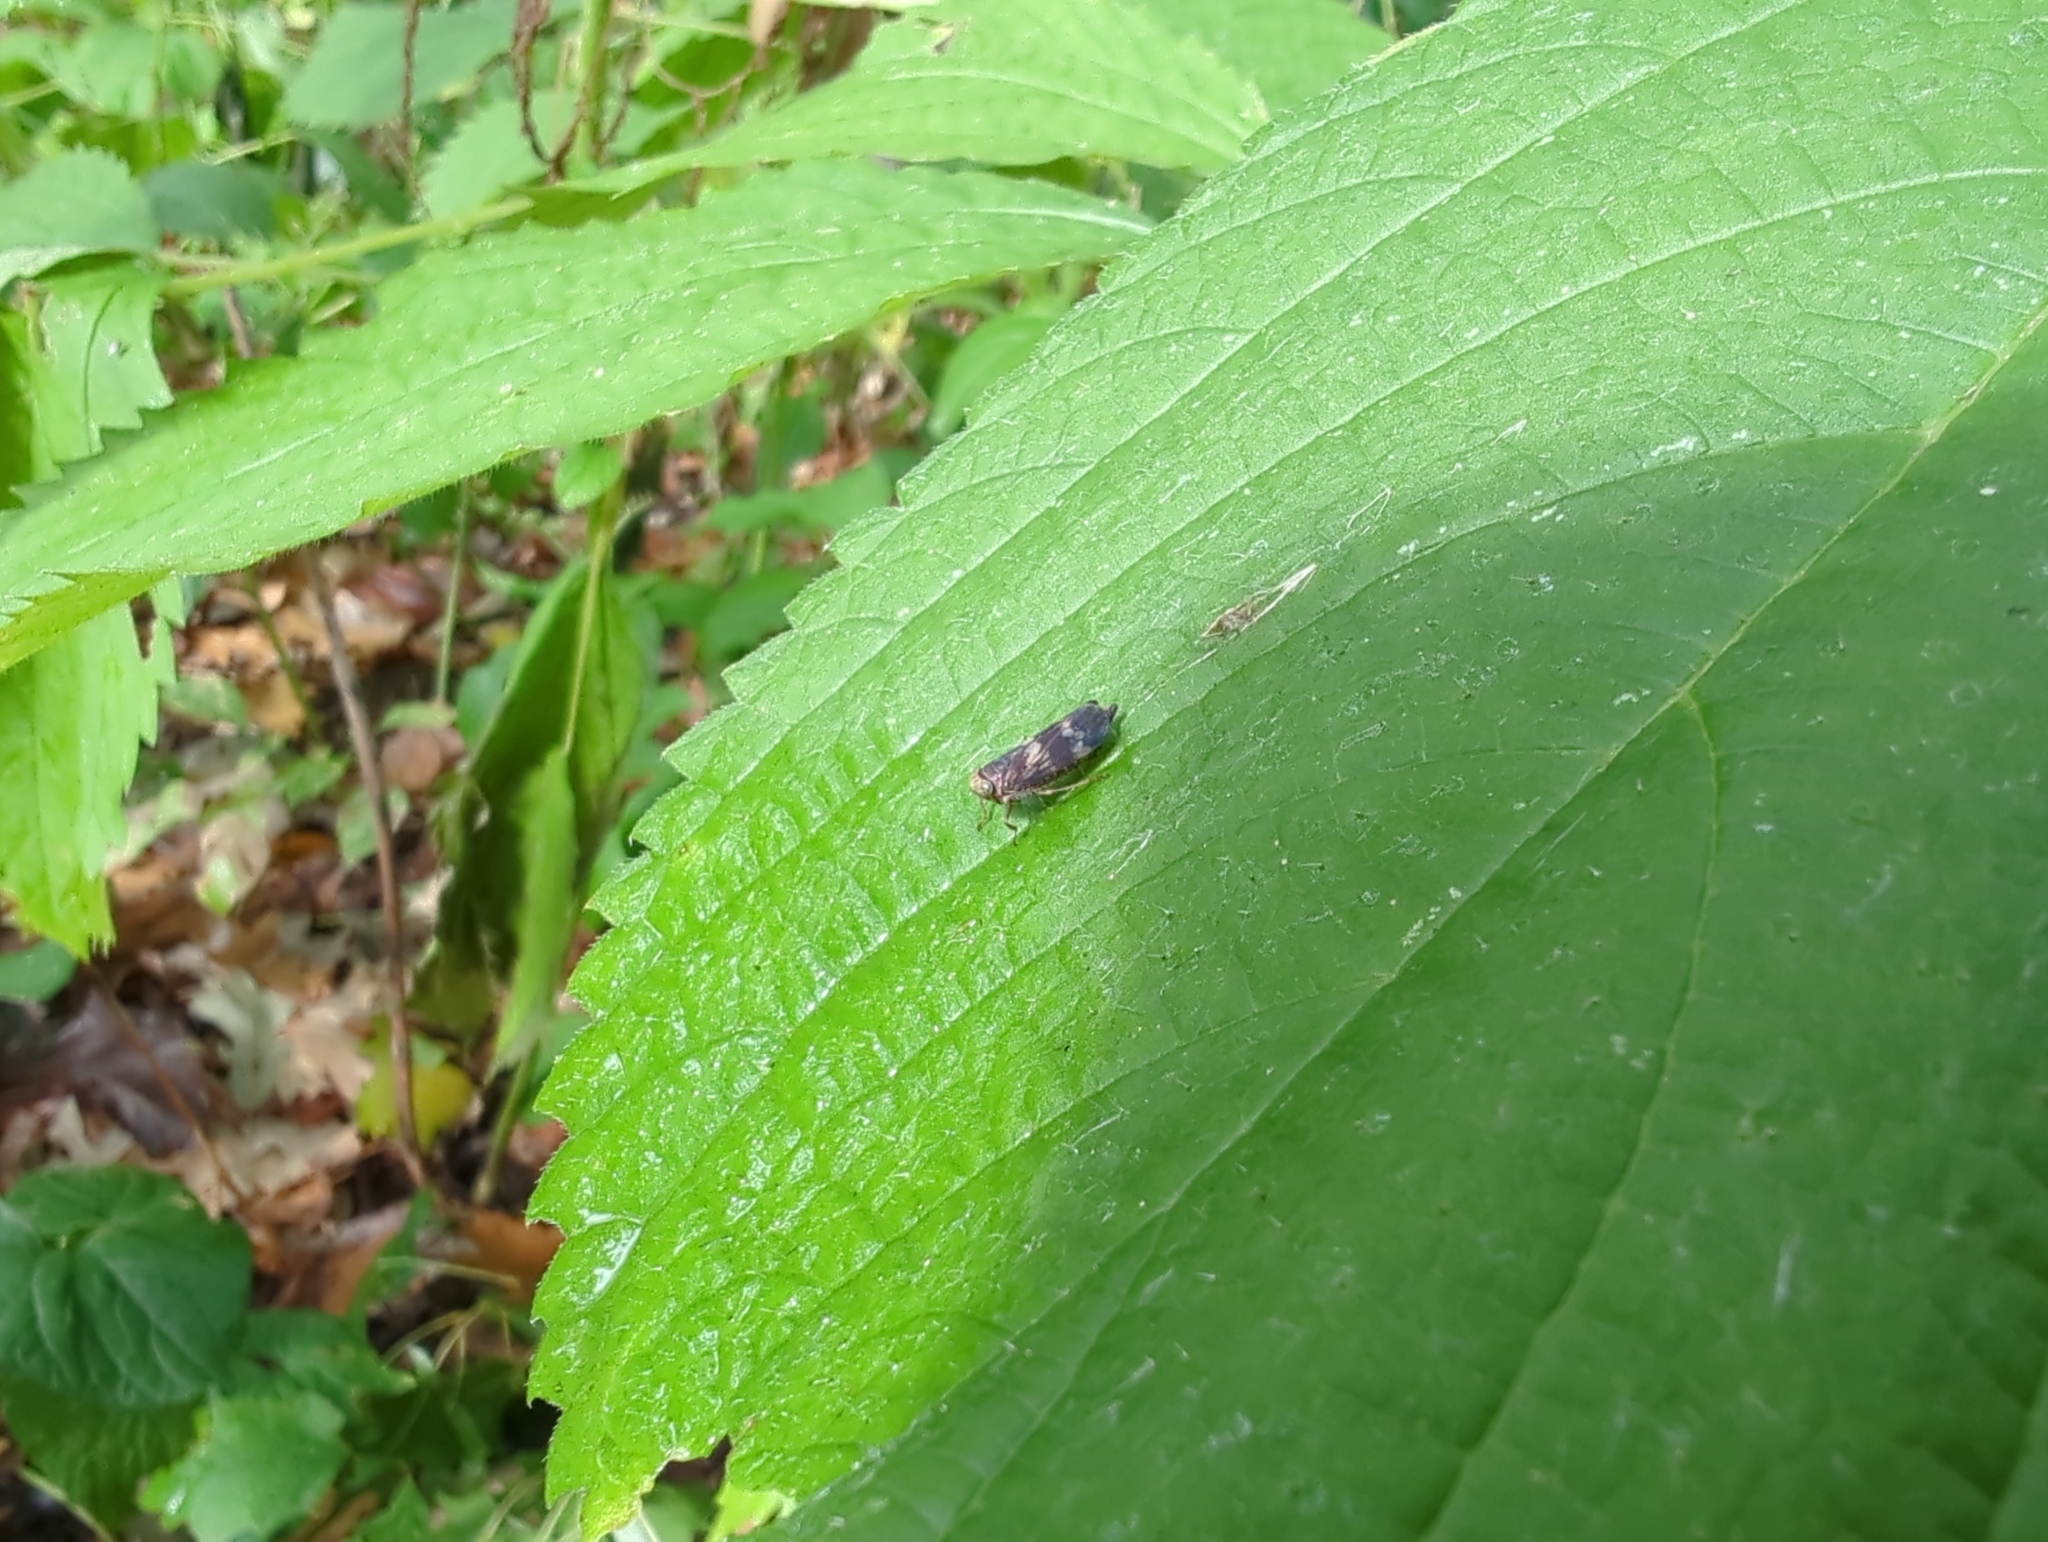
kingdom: Animalia
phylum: Arthropoda
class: Insecta
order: Hemiptera
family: Cicadellidae
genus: Jikradia
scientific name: Jikradia olitoria
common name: Coppery leafhopper
